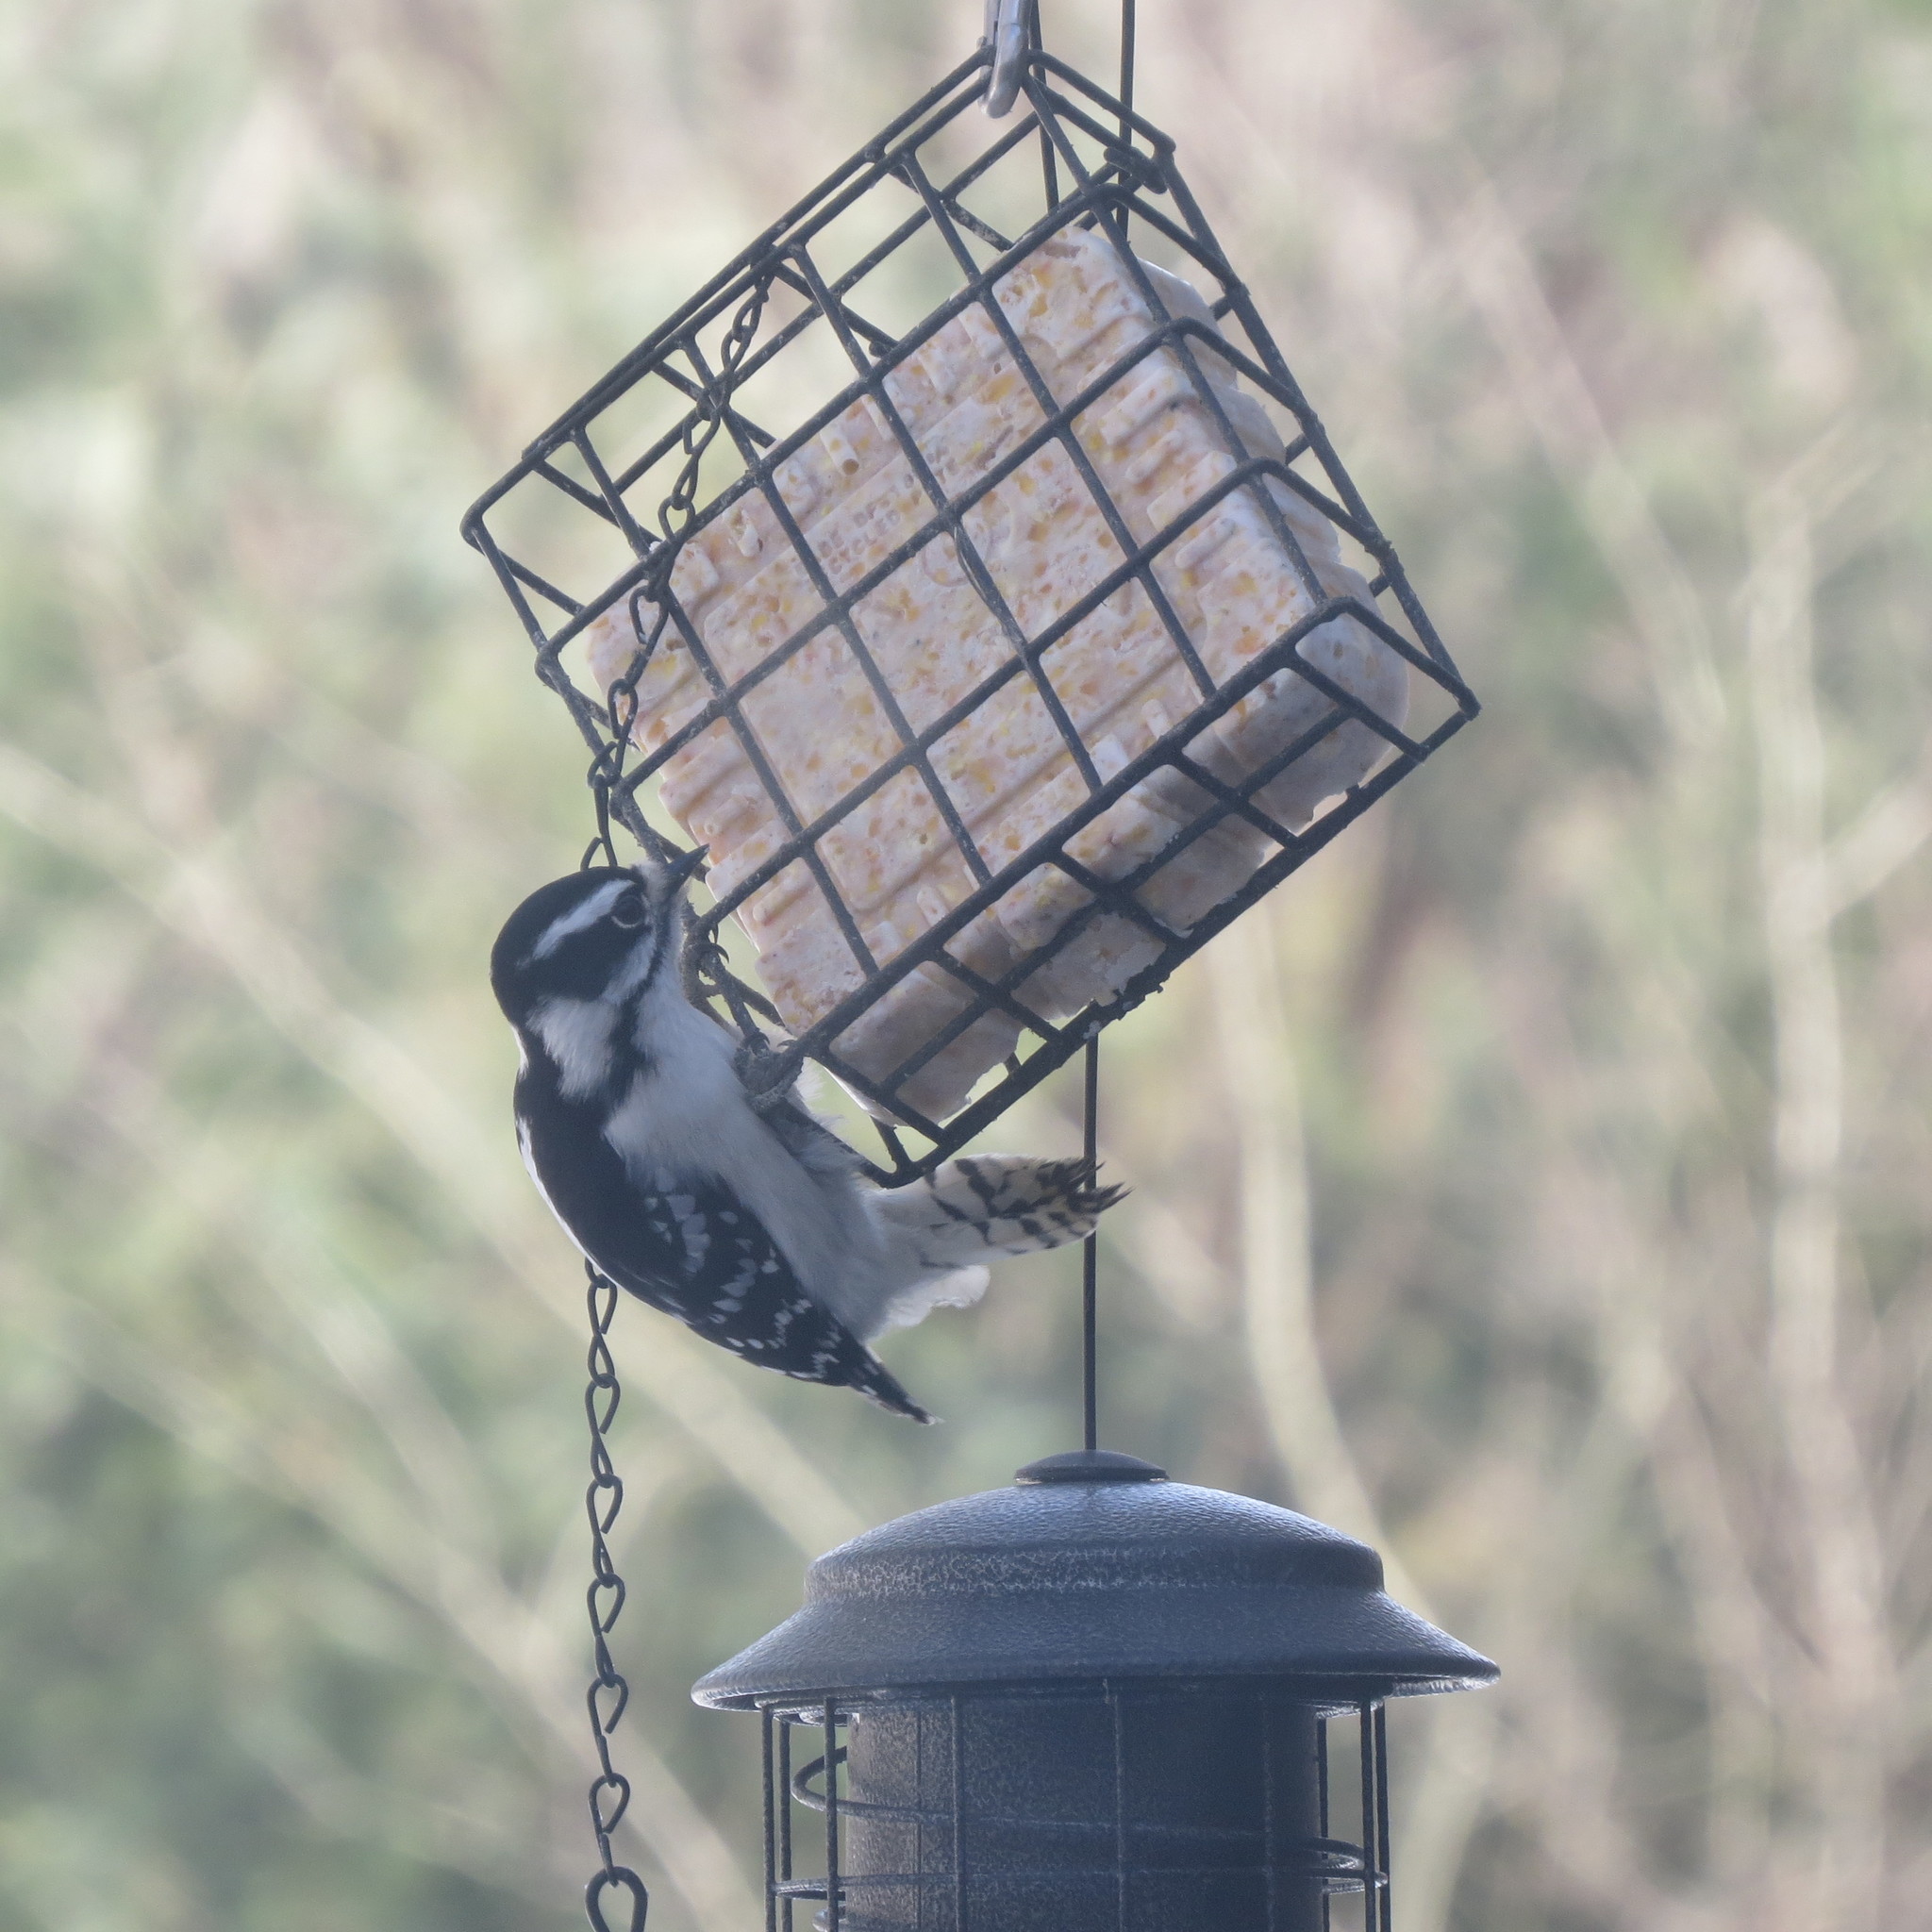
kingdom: Animalia
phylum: Chordata
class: Aves
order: Piciformes
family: Picidae
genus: Dryobates
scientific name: Dryobates pubescens
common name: Downy woodpecker
